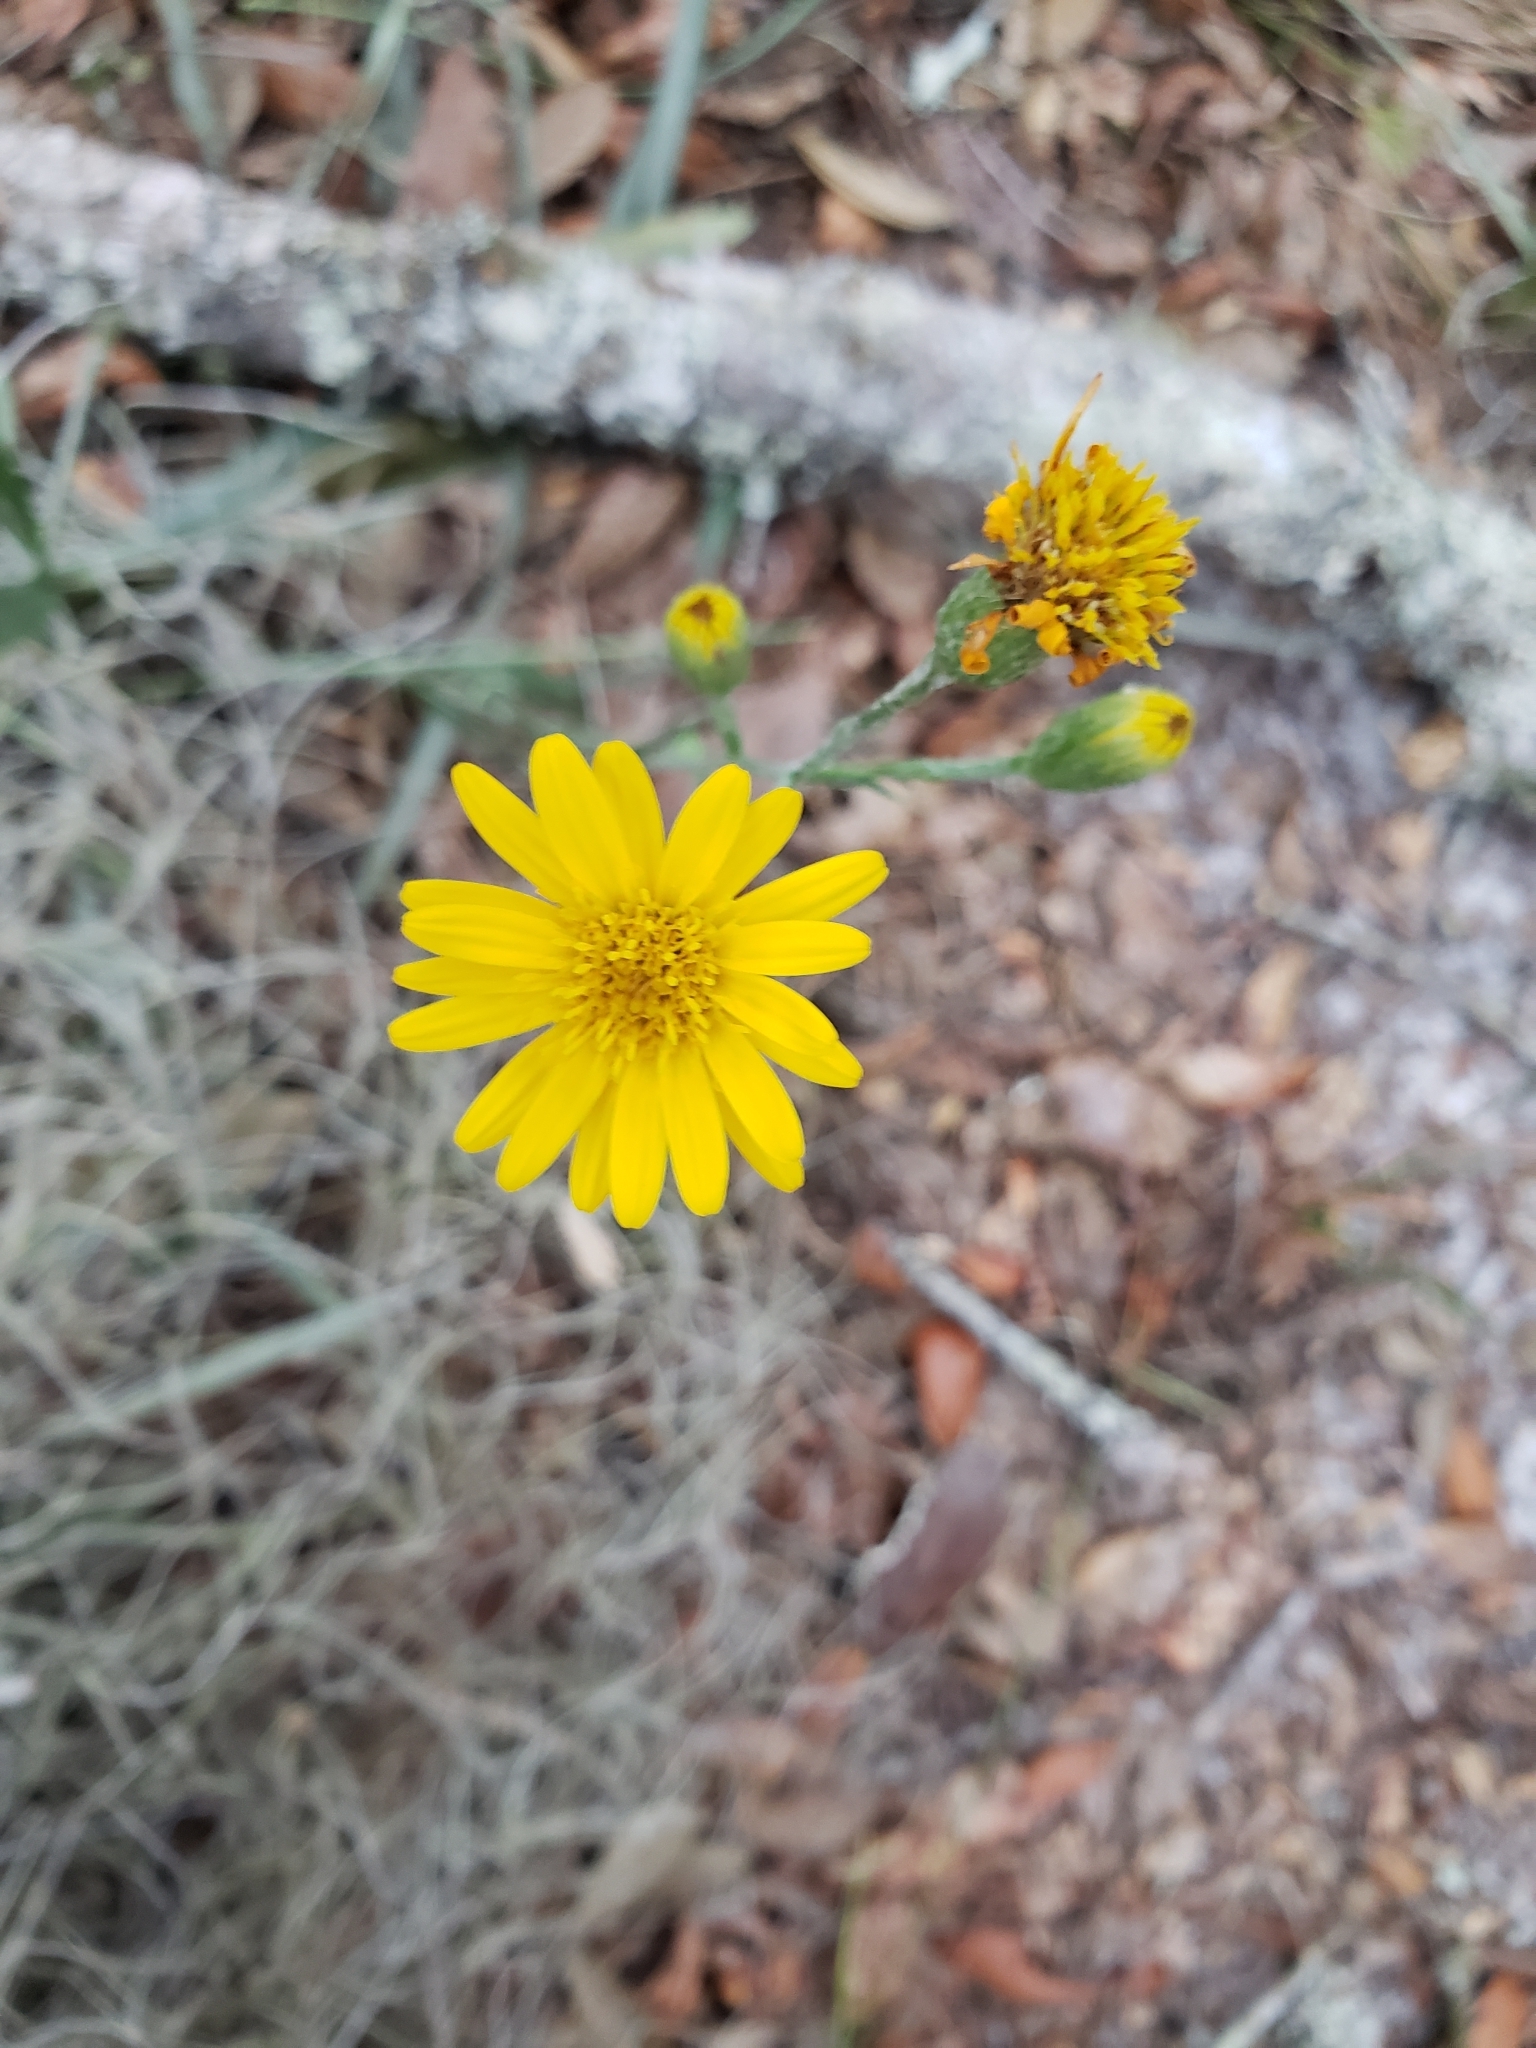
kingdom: Plantae
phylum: Tracheophyta
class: Magnoliopsida
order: Asterales
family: Asteraceae
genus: Pityopsis
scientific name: Pityopsis graminifolia
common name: Grass-leaf golden-aster
